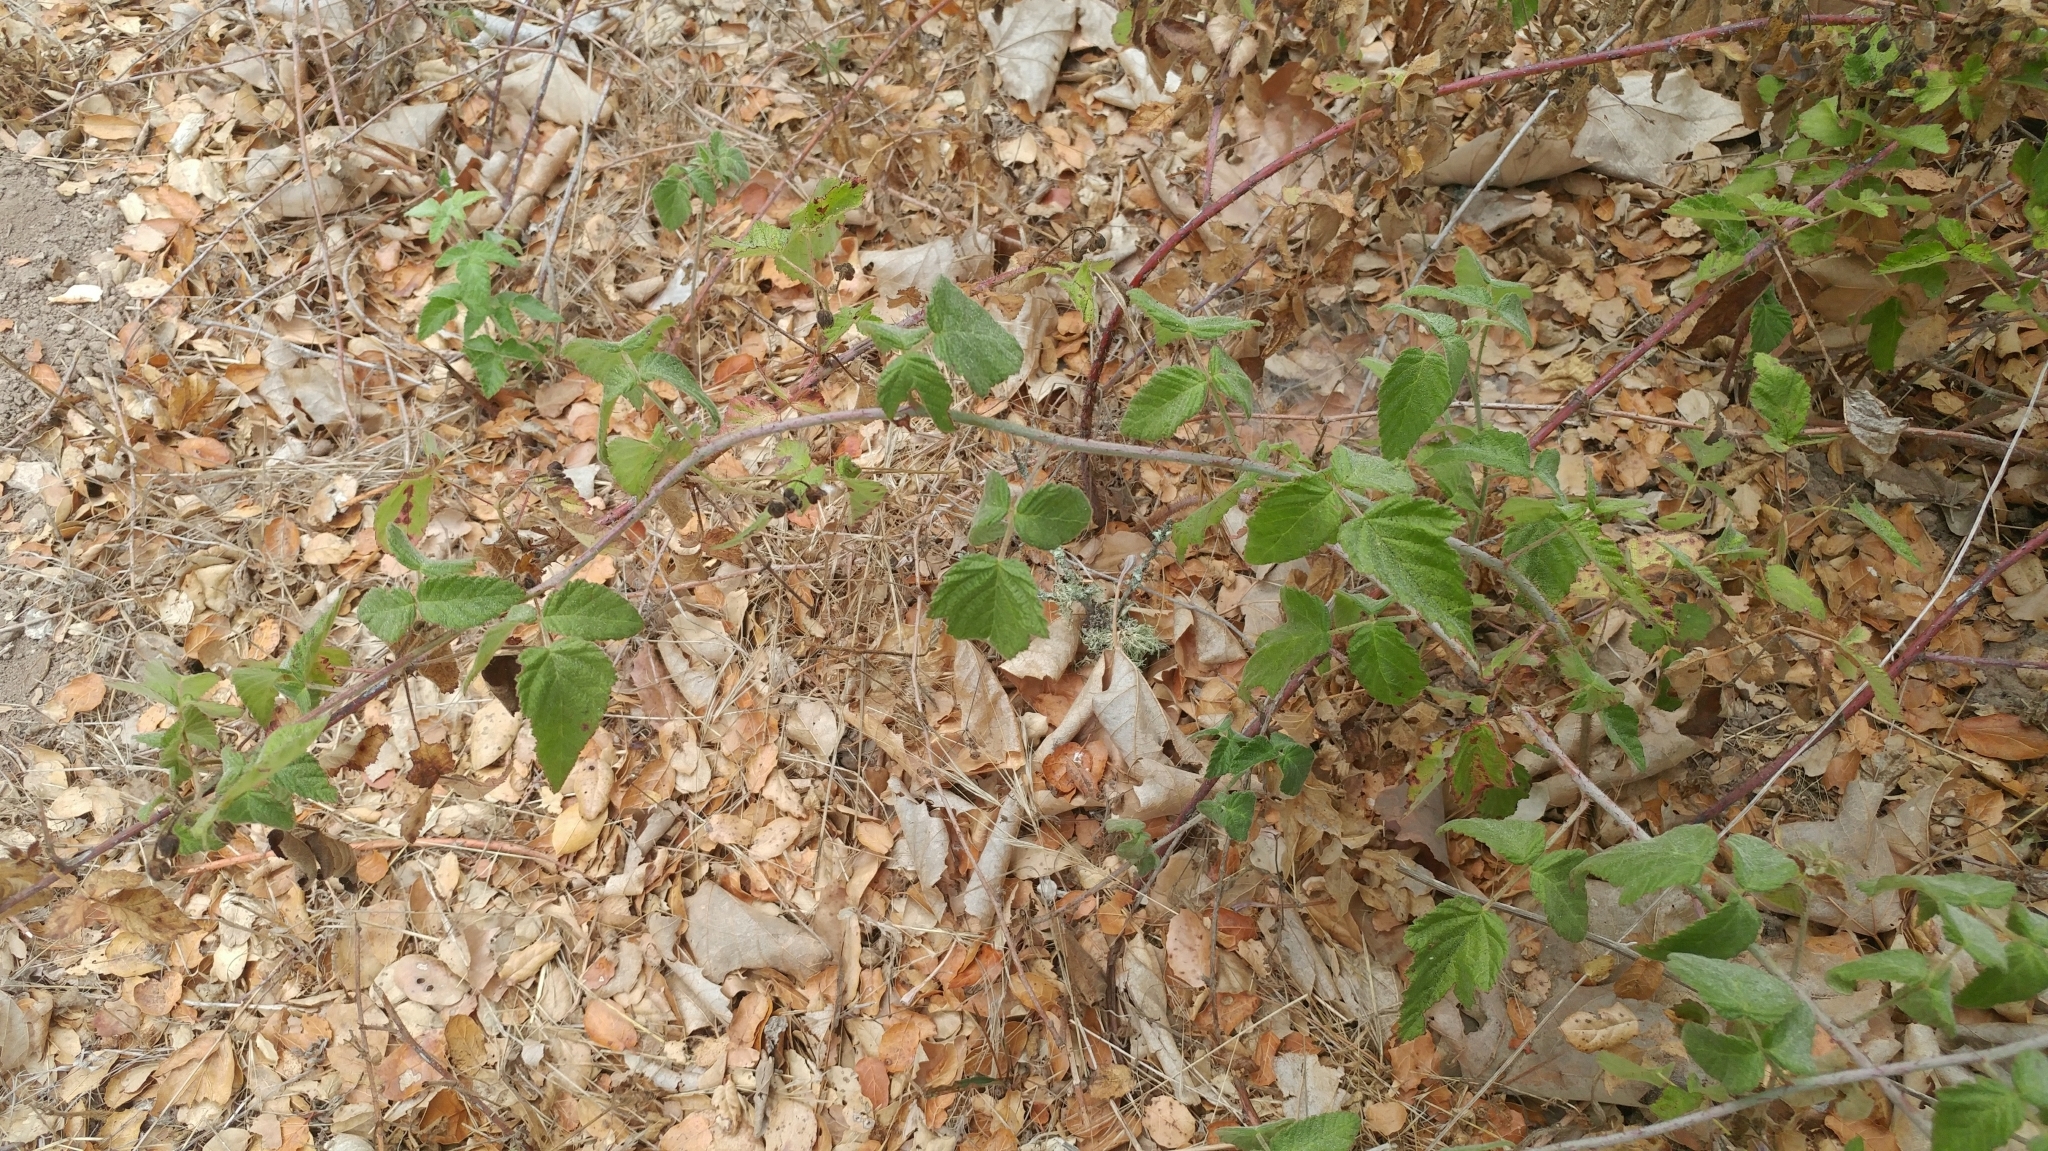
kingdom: Plantae
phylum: Tracheophyta
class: Magnoliopsida
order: Rosales
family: Rosaceae
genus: Rubus
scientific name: Rubus ursinus
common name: Pacific blackberry
